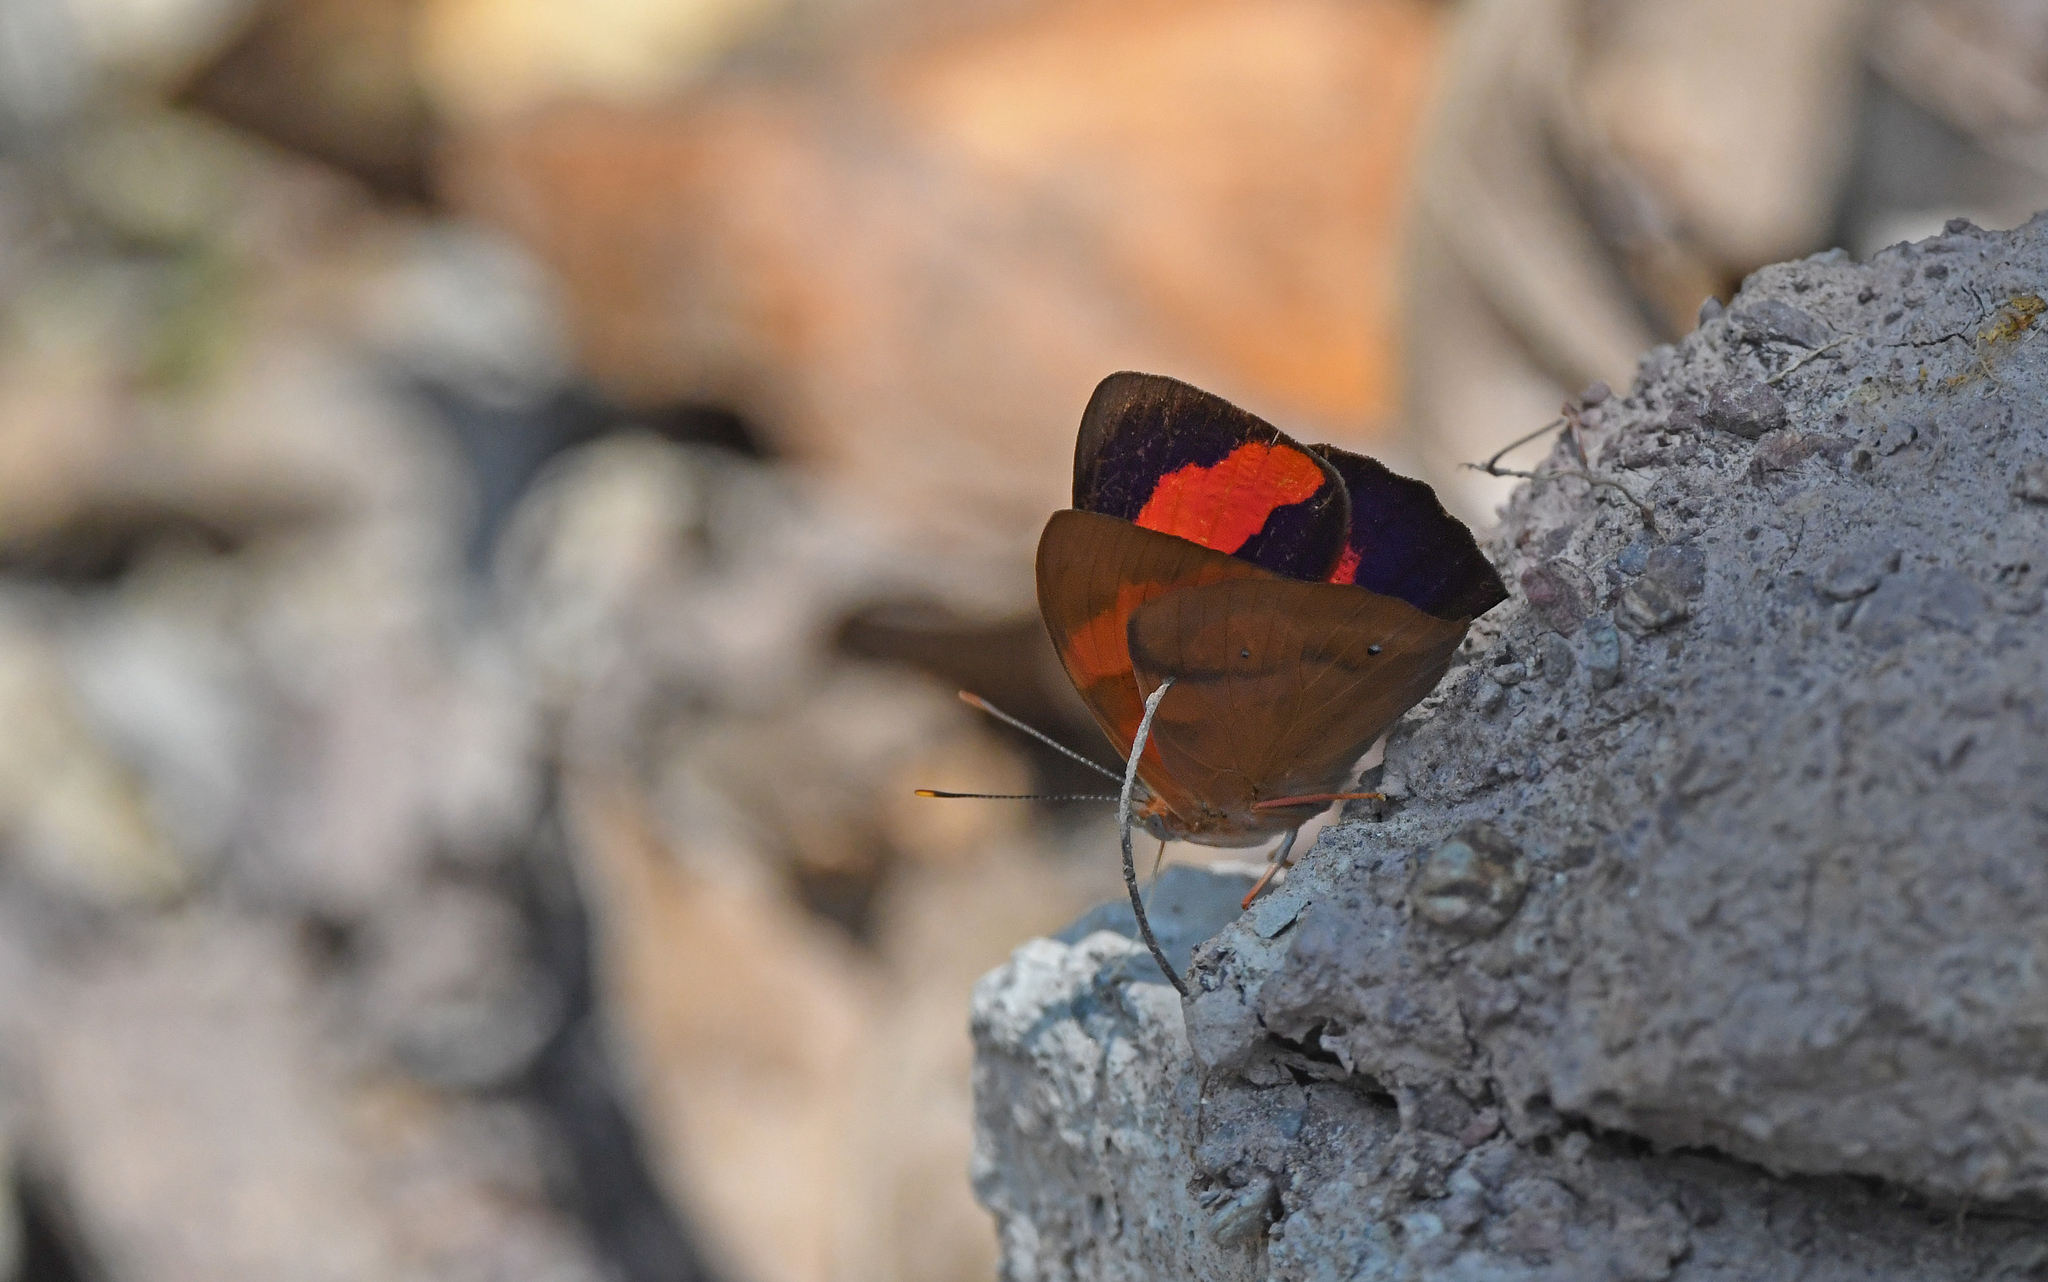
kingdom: Animalia
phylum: Arthropoda
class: Insecta
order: Lepidoptera
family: Nymphalidae
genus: Temenis
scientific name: Temenis pulchra
